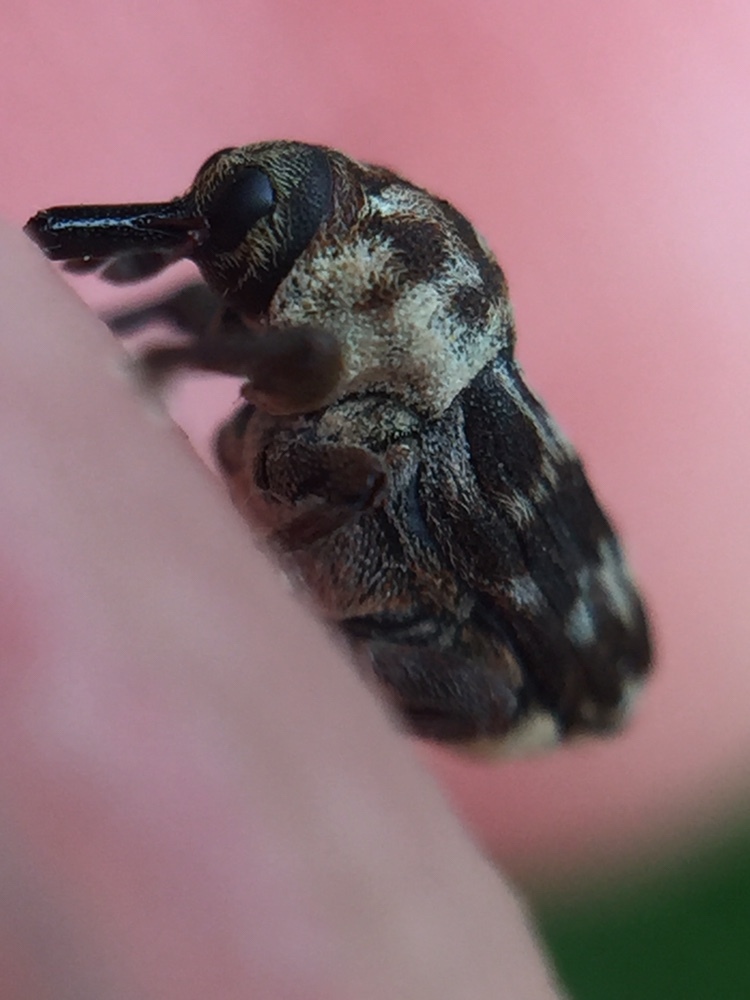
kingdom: Animalia
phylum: Arthropoda
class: Insecta
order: Coleoptera
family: Curculionidae
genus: Neolaemosaccus
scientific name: Neolaemosaccus narinus
